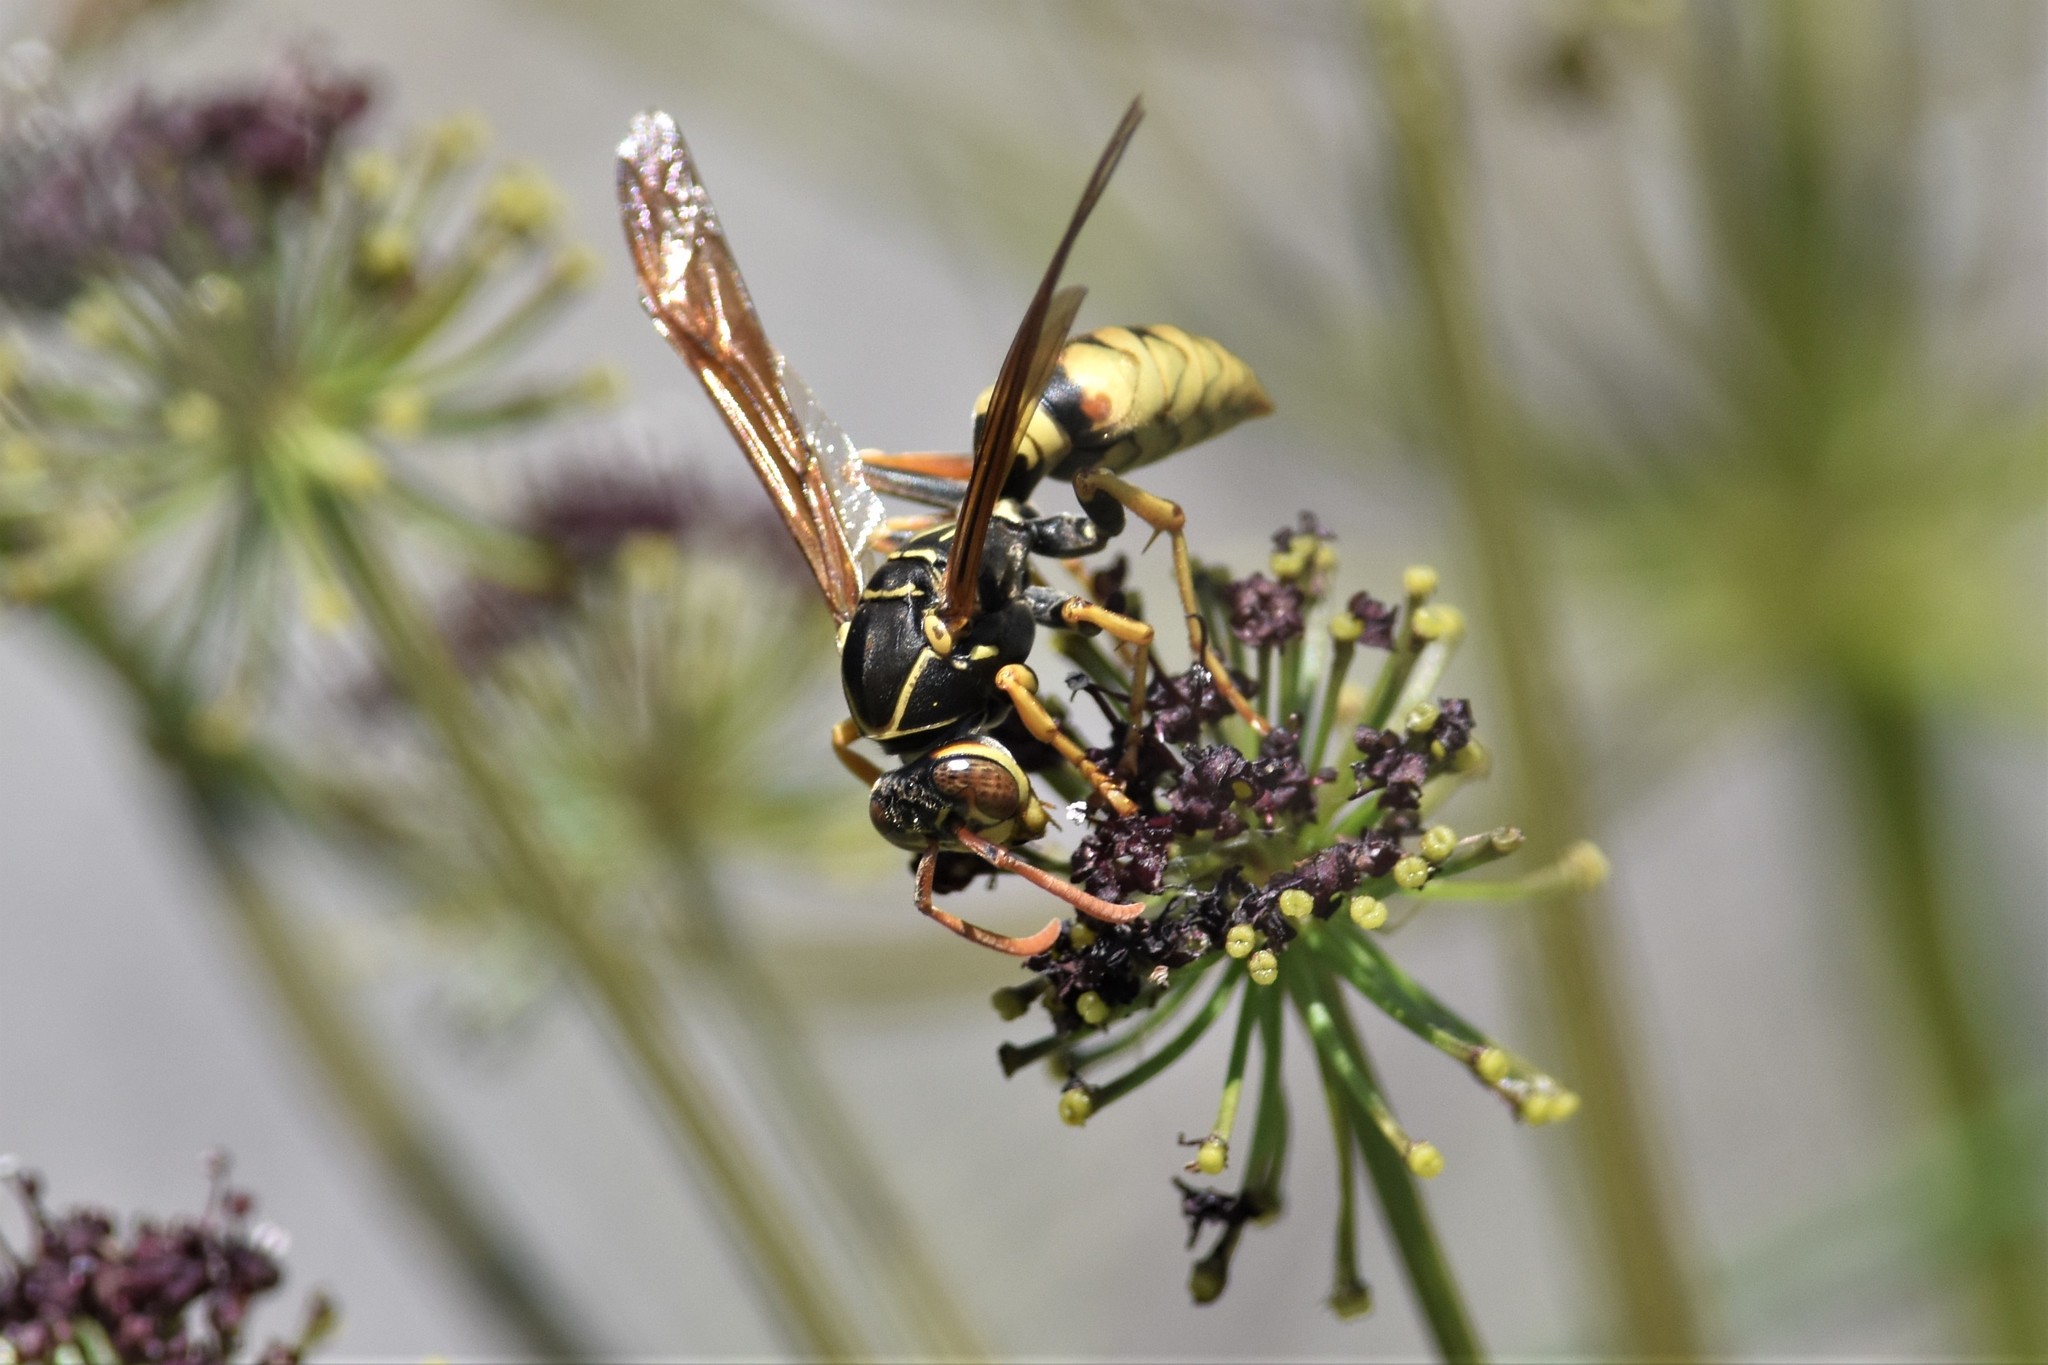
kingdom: Animalia
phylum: Arthropoda
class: Insecta
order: Hymenoptera
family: Eumenidae
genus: Polistes
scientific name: Polistes aurifer
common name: Paper wasp
